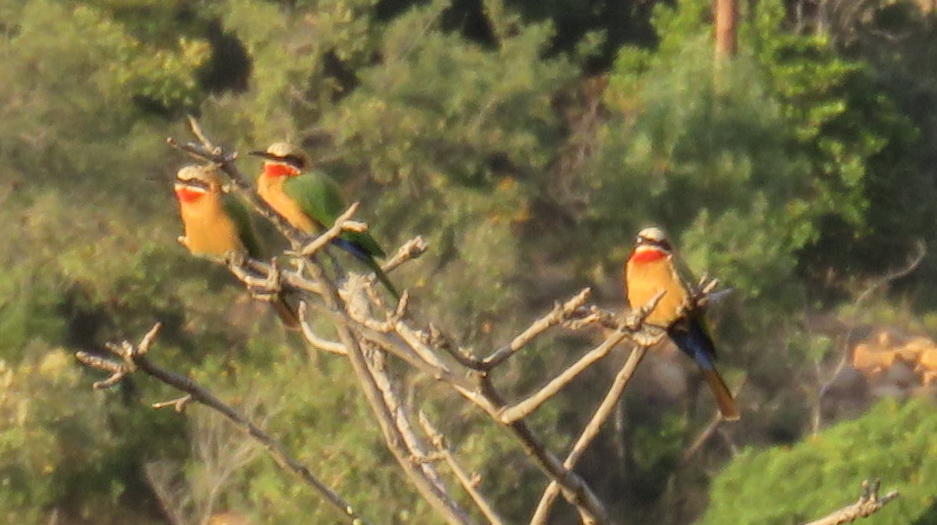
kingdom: Animalia
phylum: Chordata
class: Aves
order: Coraciiformes
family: Meropidae
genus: Merops
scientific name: Merops bullockoides
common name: White-fronted bee-eater
